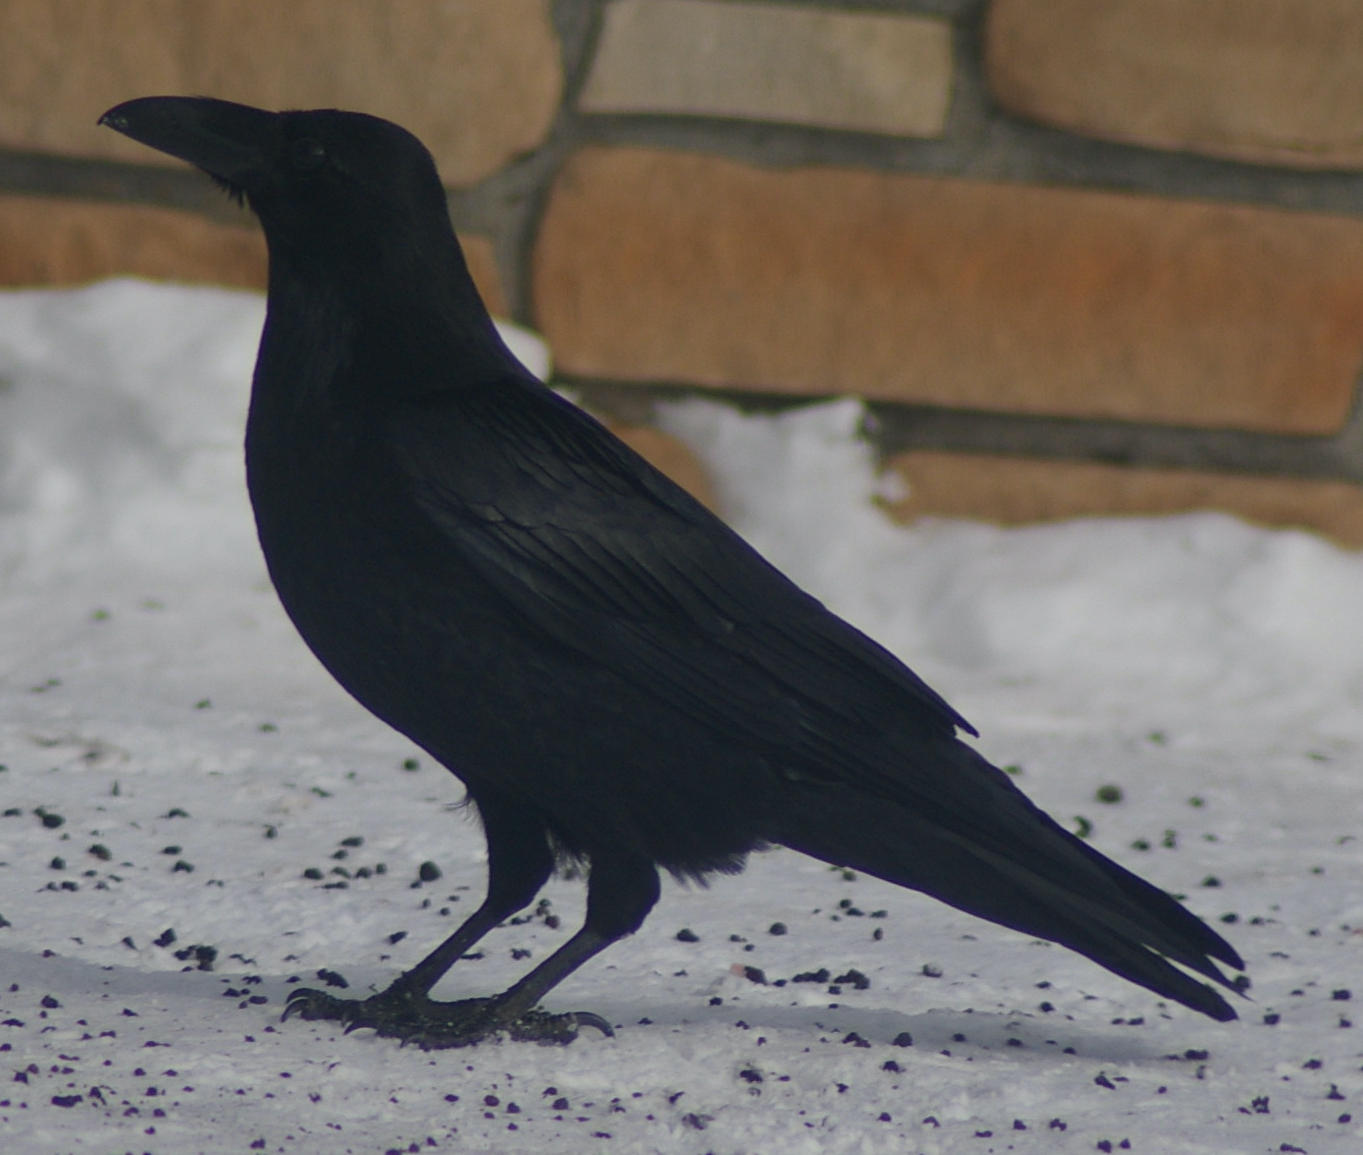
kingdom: Animalia
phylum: Chordata
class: Aves
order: Passeriformes
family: Corvidae
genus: Corvus
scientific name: Corvus corax
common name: Common raven
